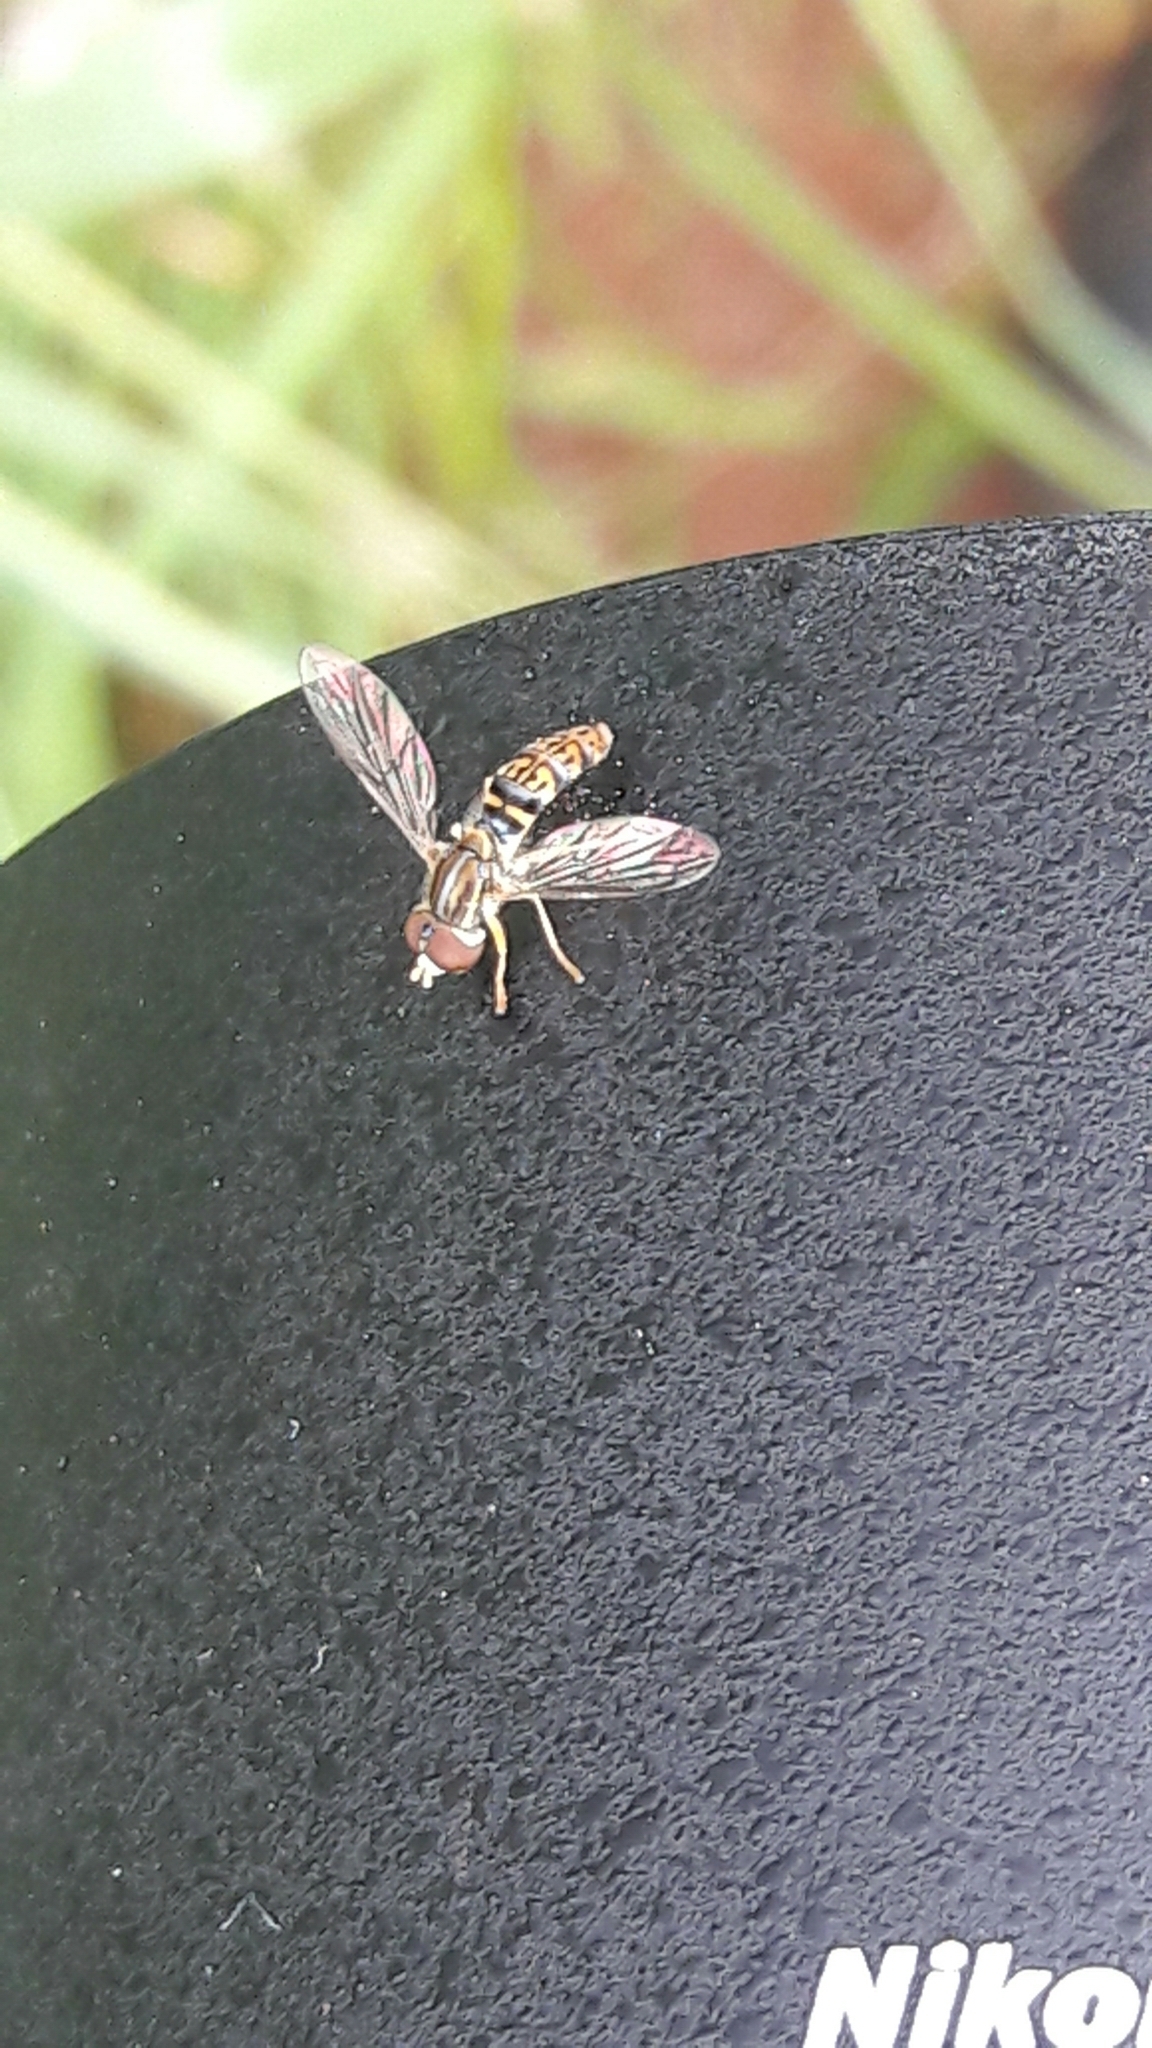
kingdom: Animalia
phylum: Arthropoda
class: Insecta
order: Diptera
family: Syrphidae
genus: Toxomerus
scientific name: Toxomerus
